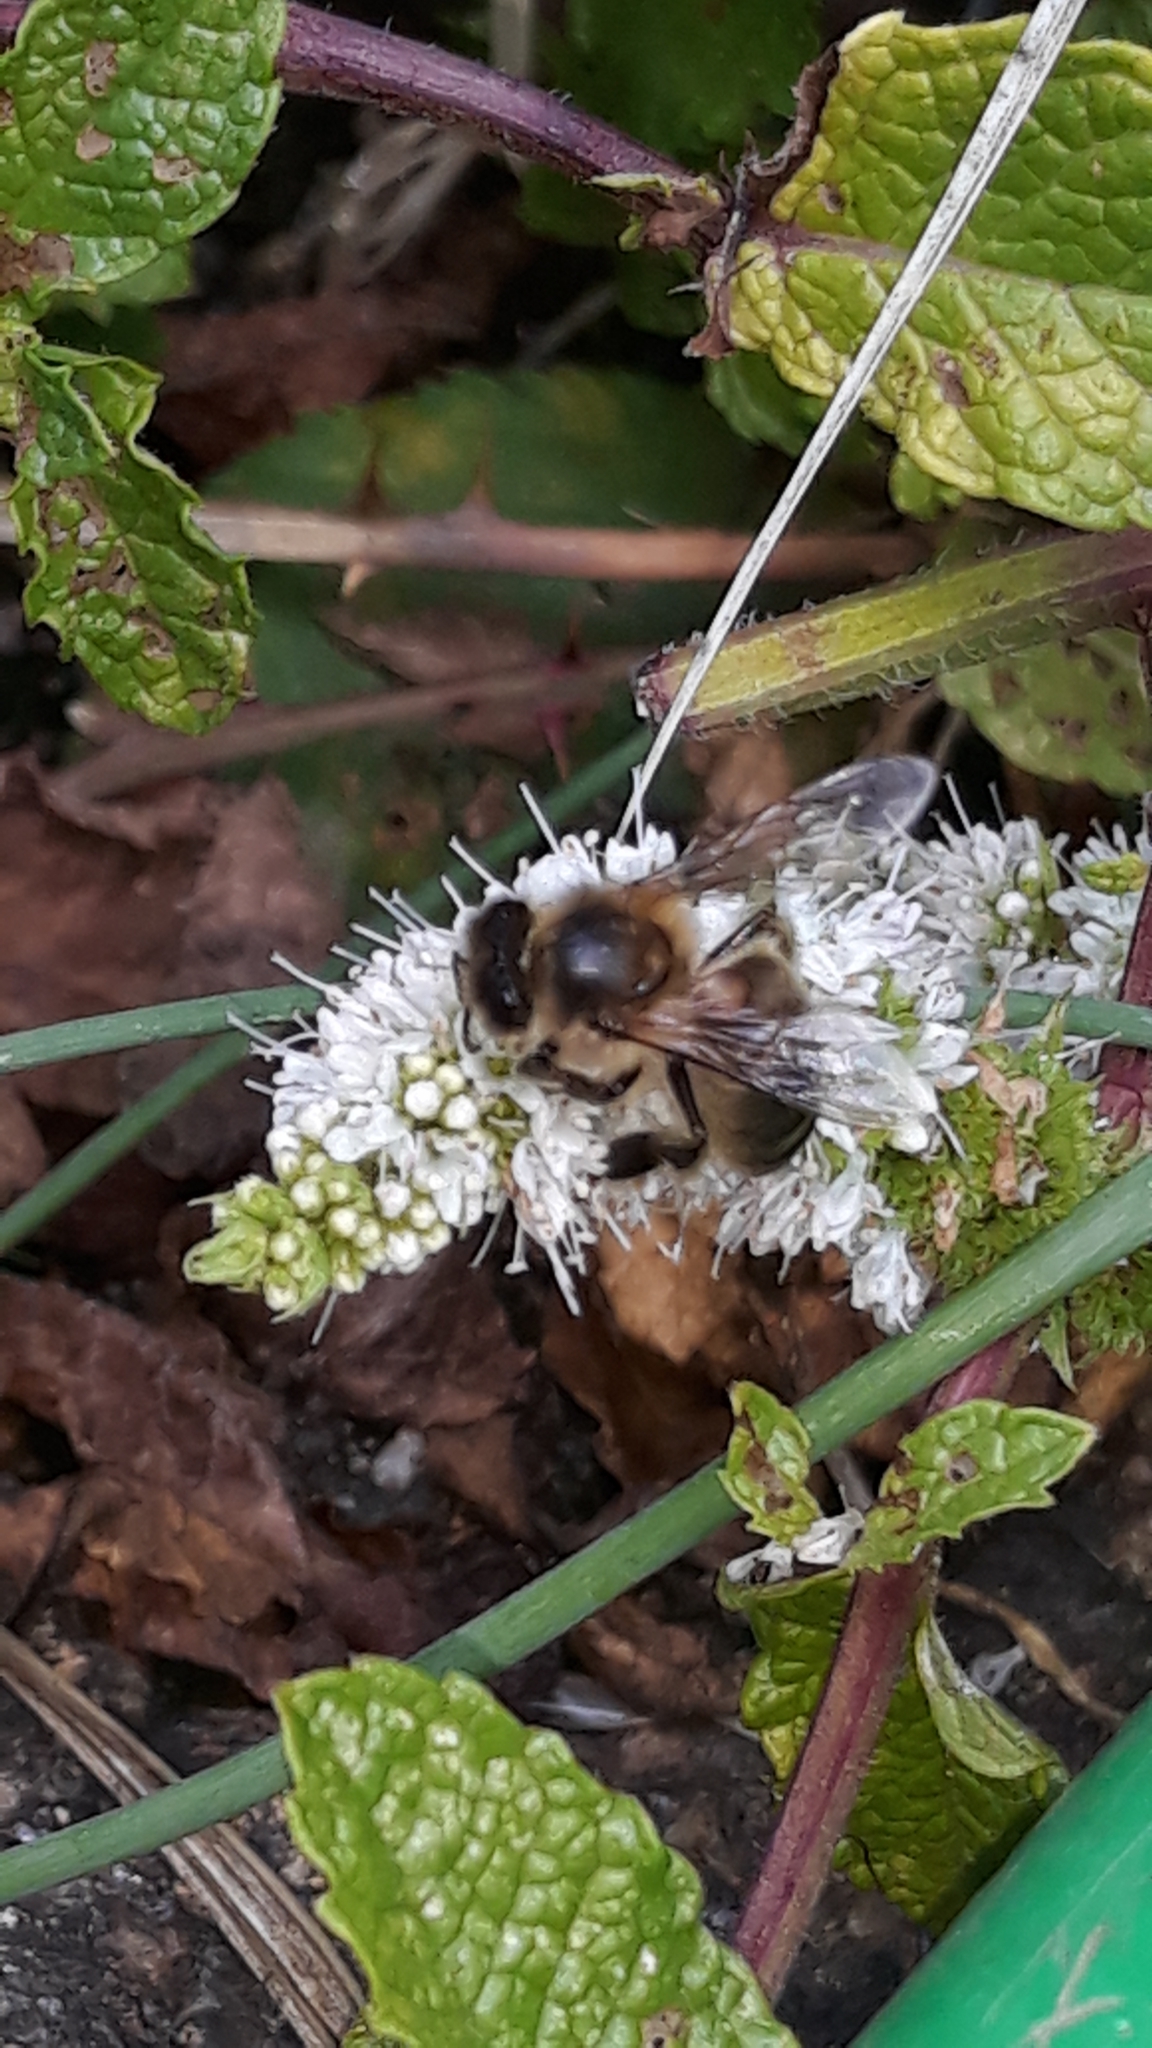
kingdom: Animalia
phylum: Arthropoda
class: Insecta
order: Hymenoptera
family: Apidae
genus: Apis
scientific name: Apis mellifera
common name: Honey bee
